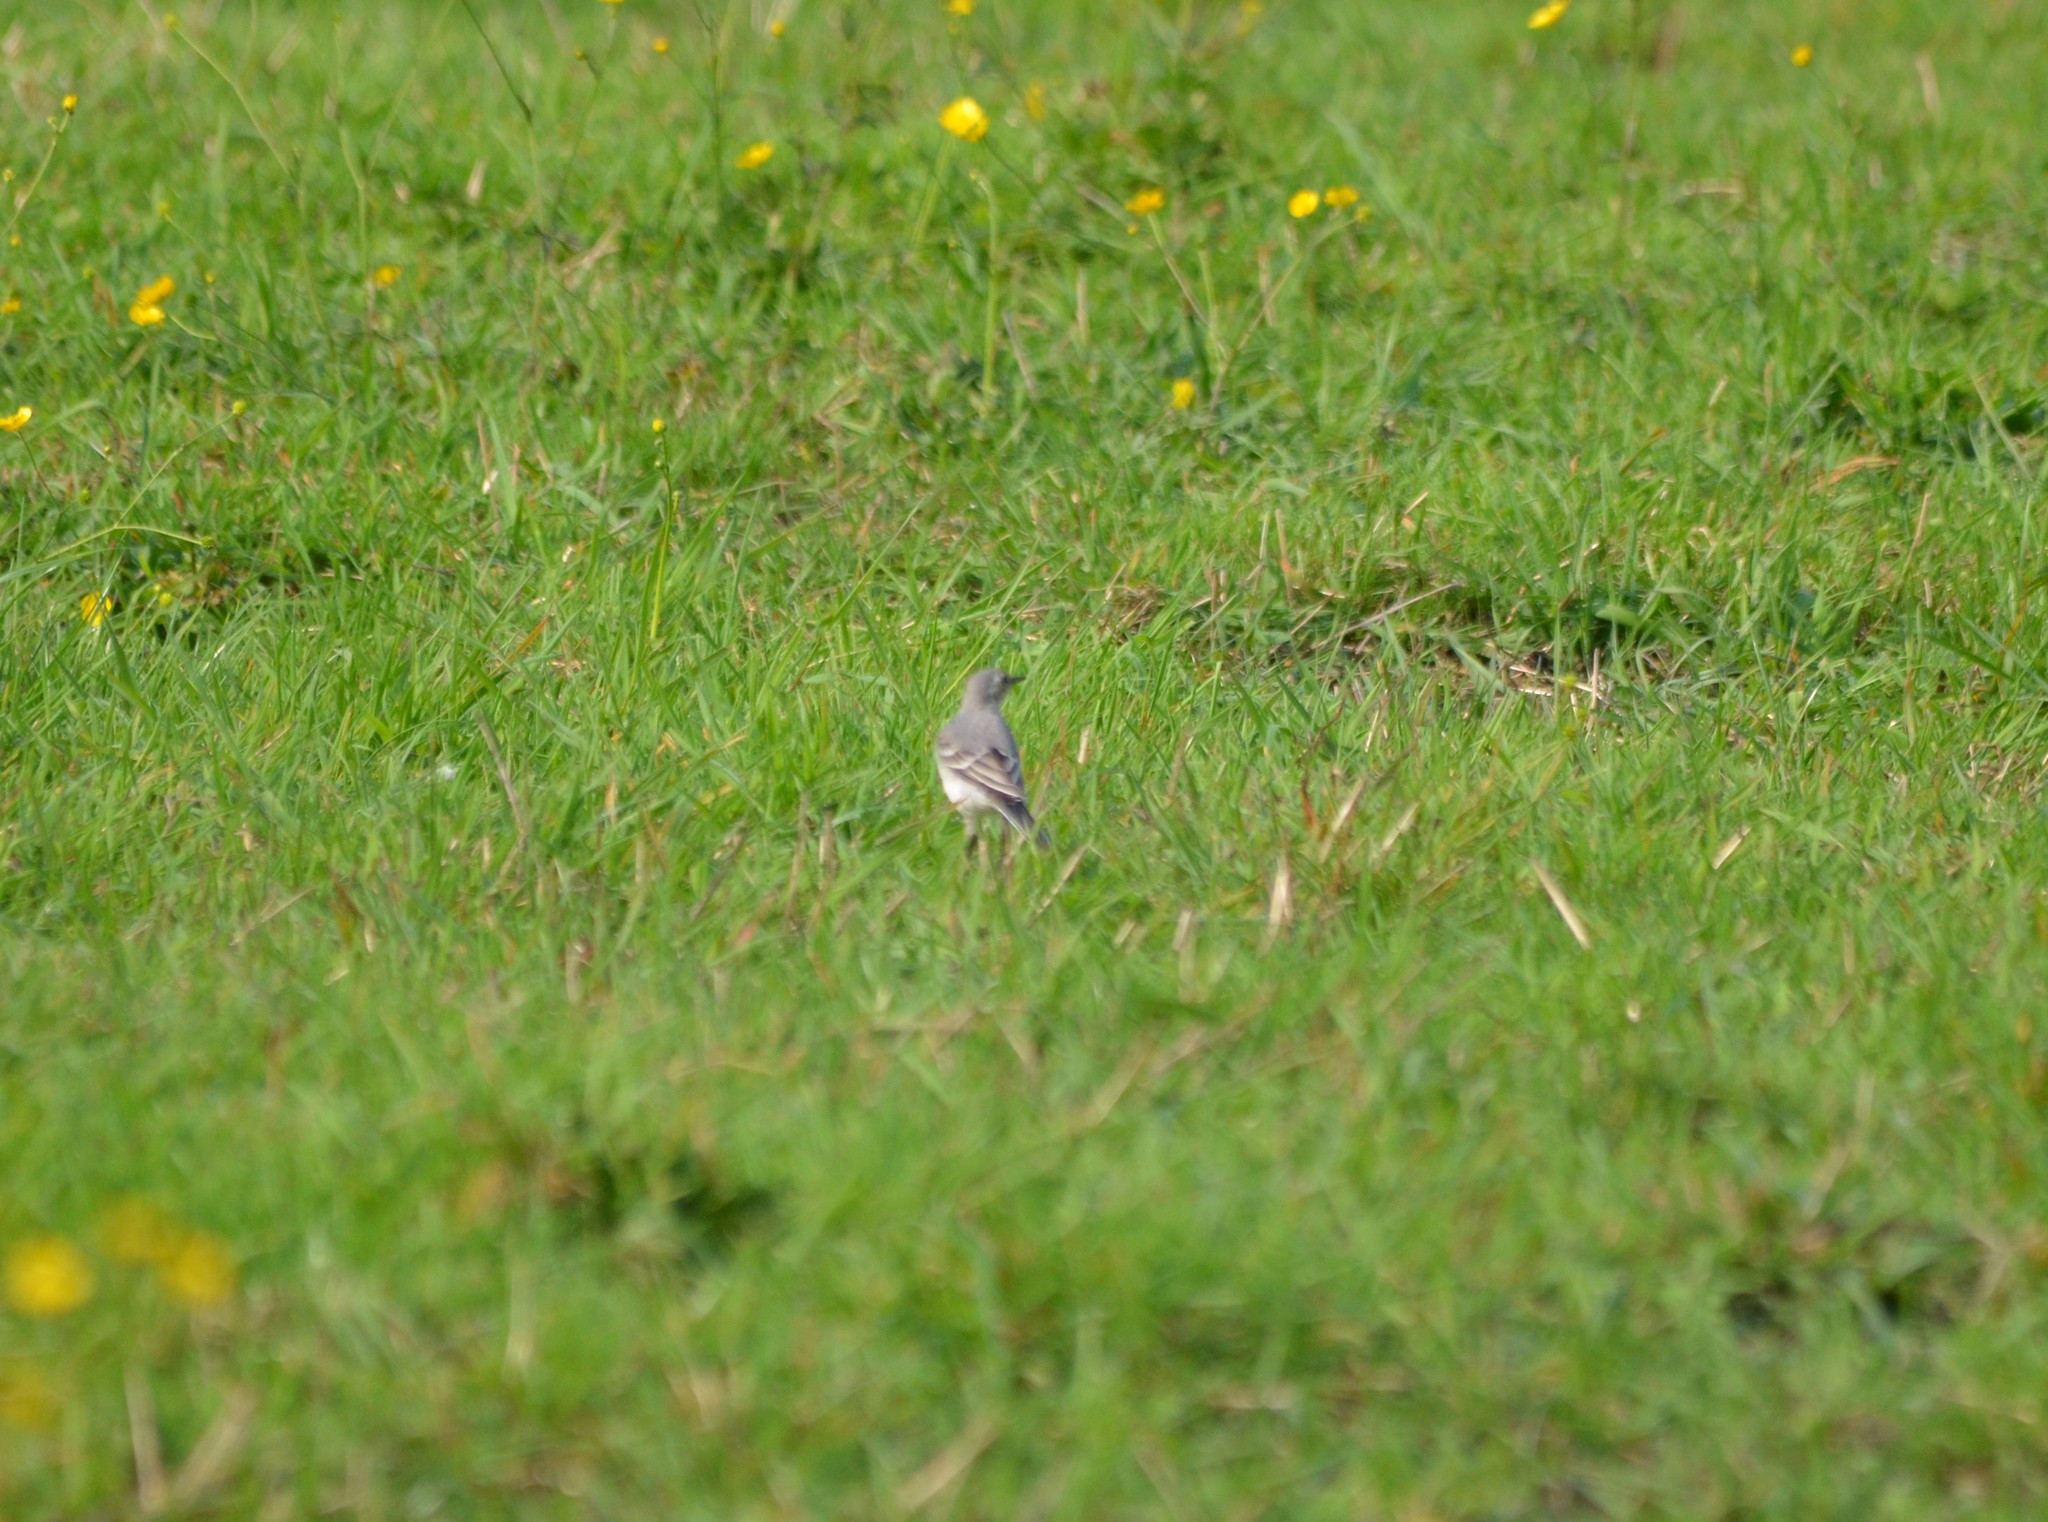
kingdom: Animalia
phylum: Chordata
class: Aves
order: Passeriformes
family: Motacillidae
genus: Motacilla
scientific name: Motacilla alba
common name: White wagtail
